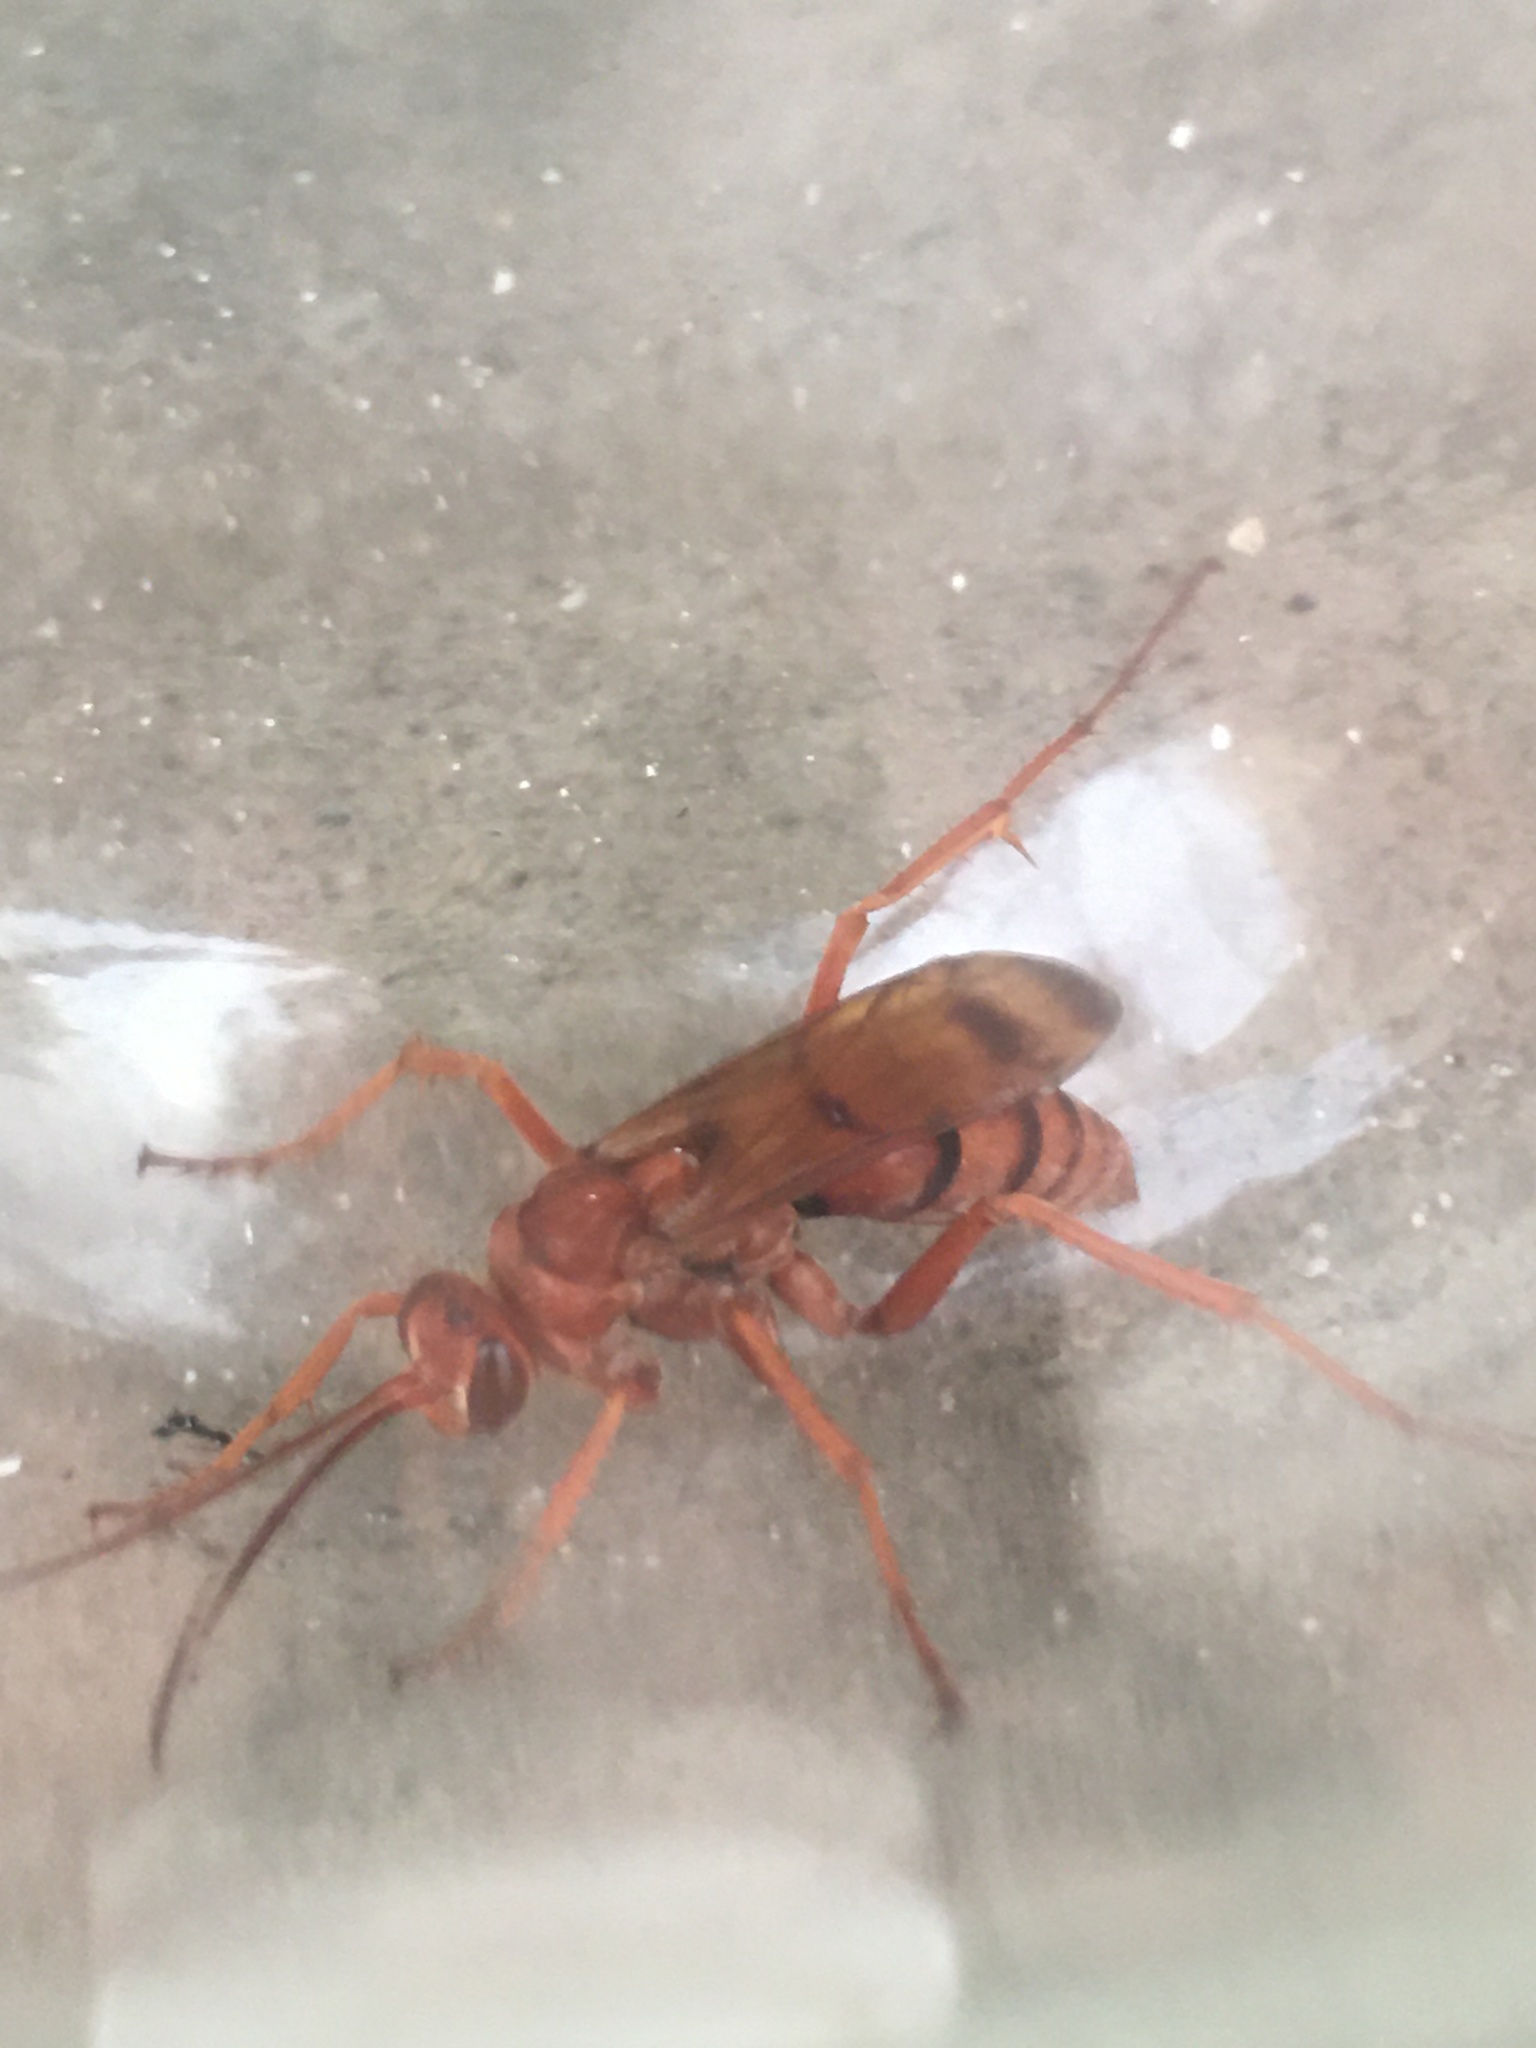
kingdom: Animalia
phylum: Arthropoda
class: Insecta
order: Hymenoptera
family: Pompilidae
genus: Tachypompilus
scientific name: Tachypompilus
